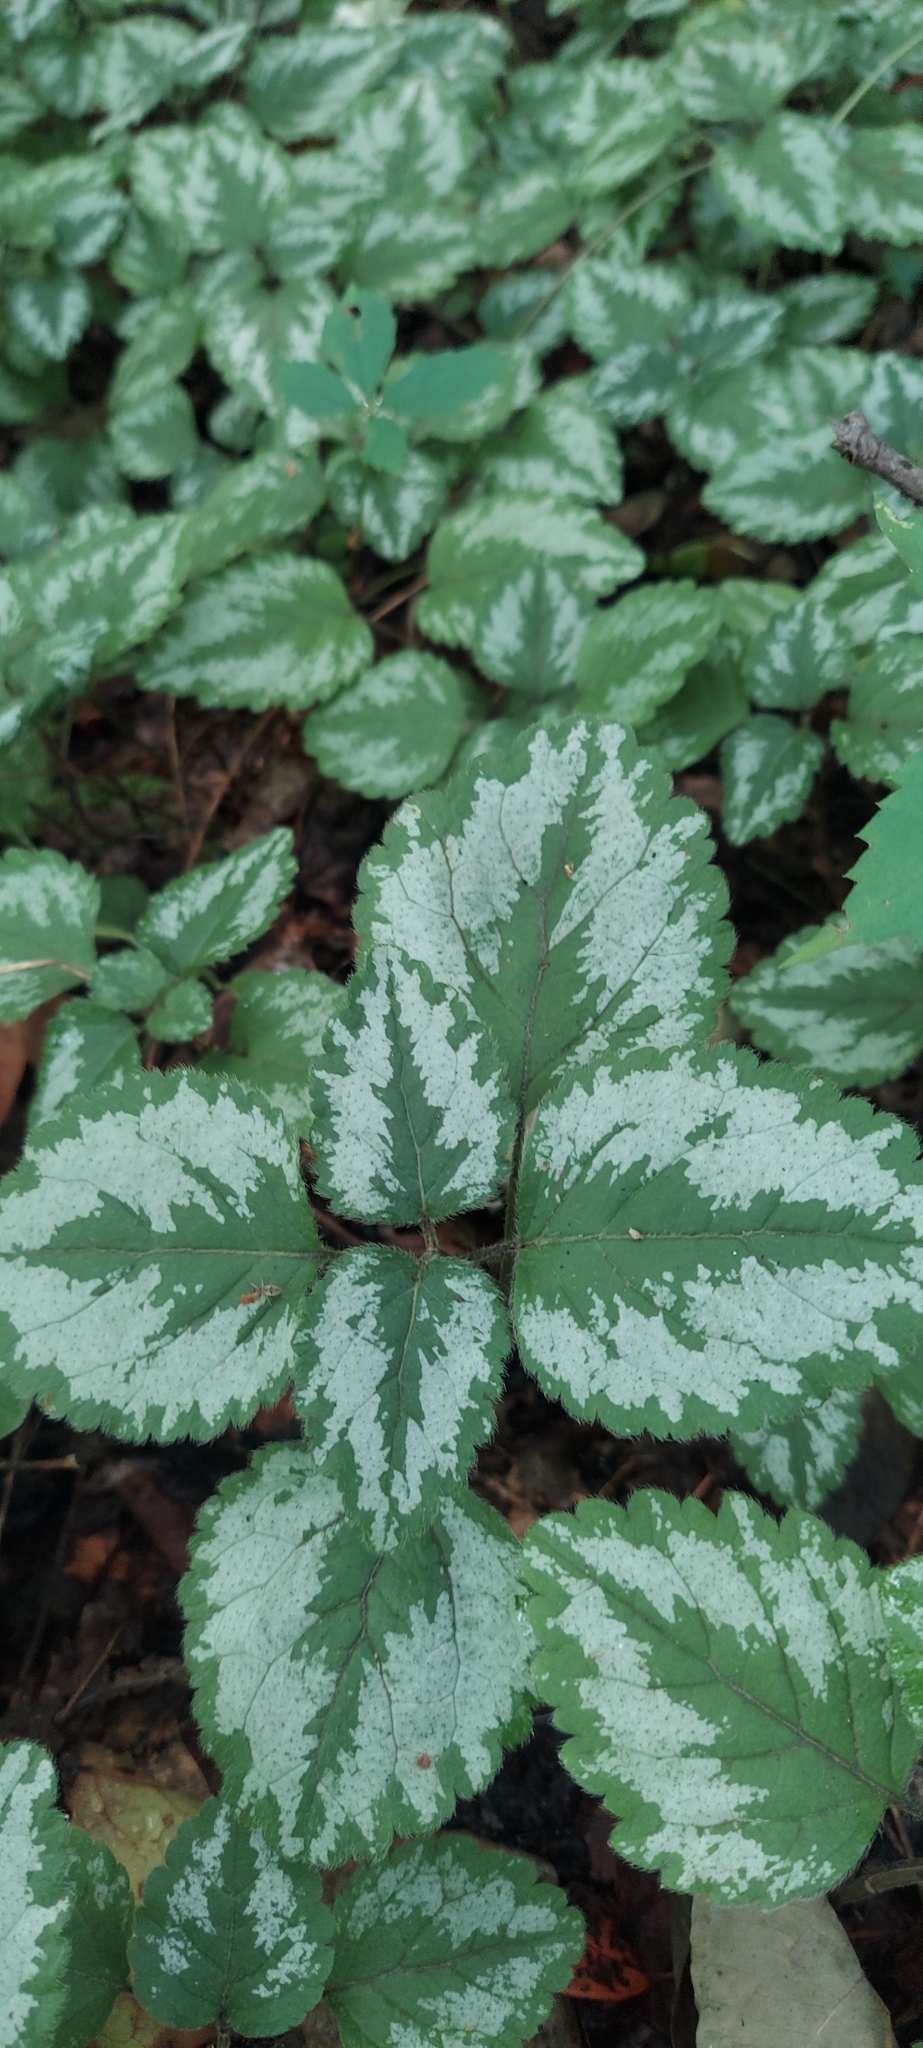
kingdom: Plantae
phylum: Tracheophyta
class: Magnoliopsida
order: Lamiales
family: Lamiaceae
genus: Lamium
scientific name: Lamium galeobdolon
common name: Yellow archangel
